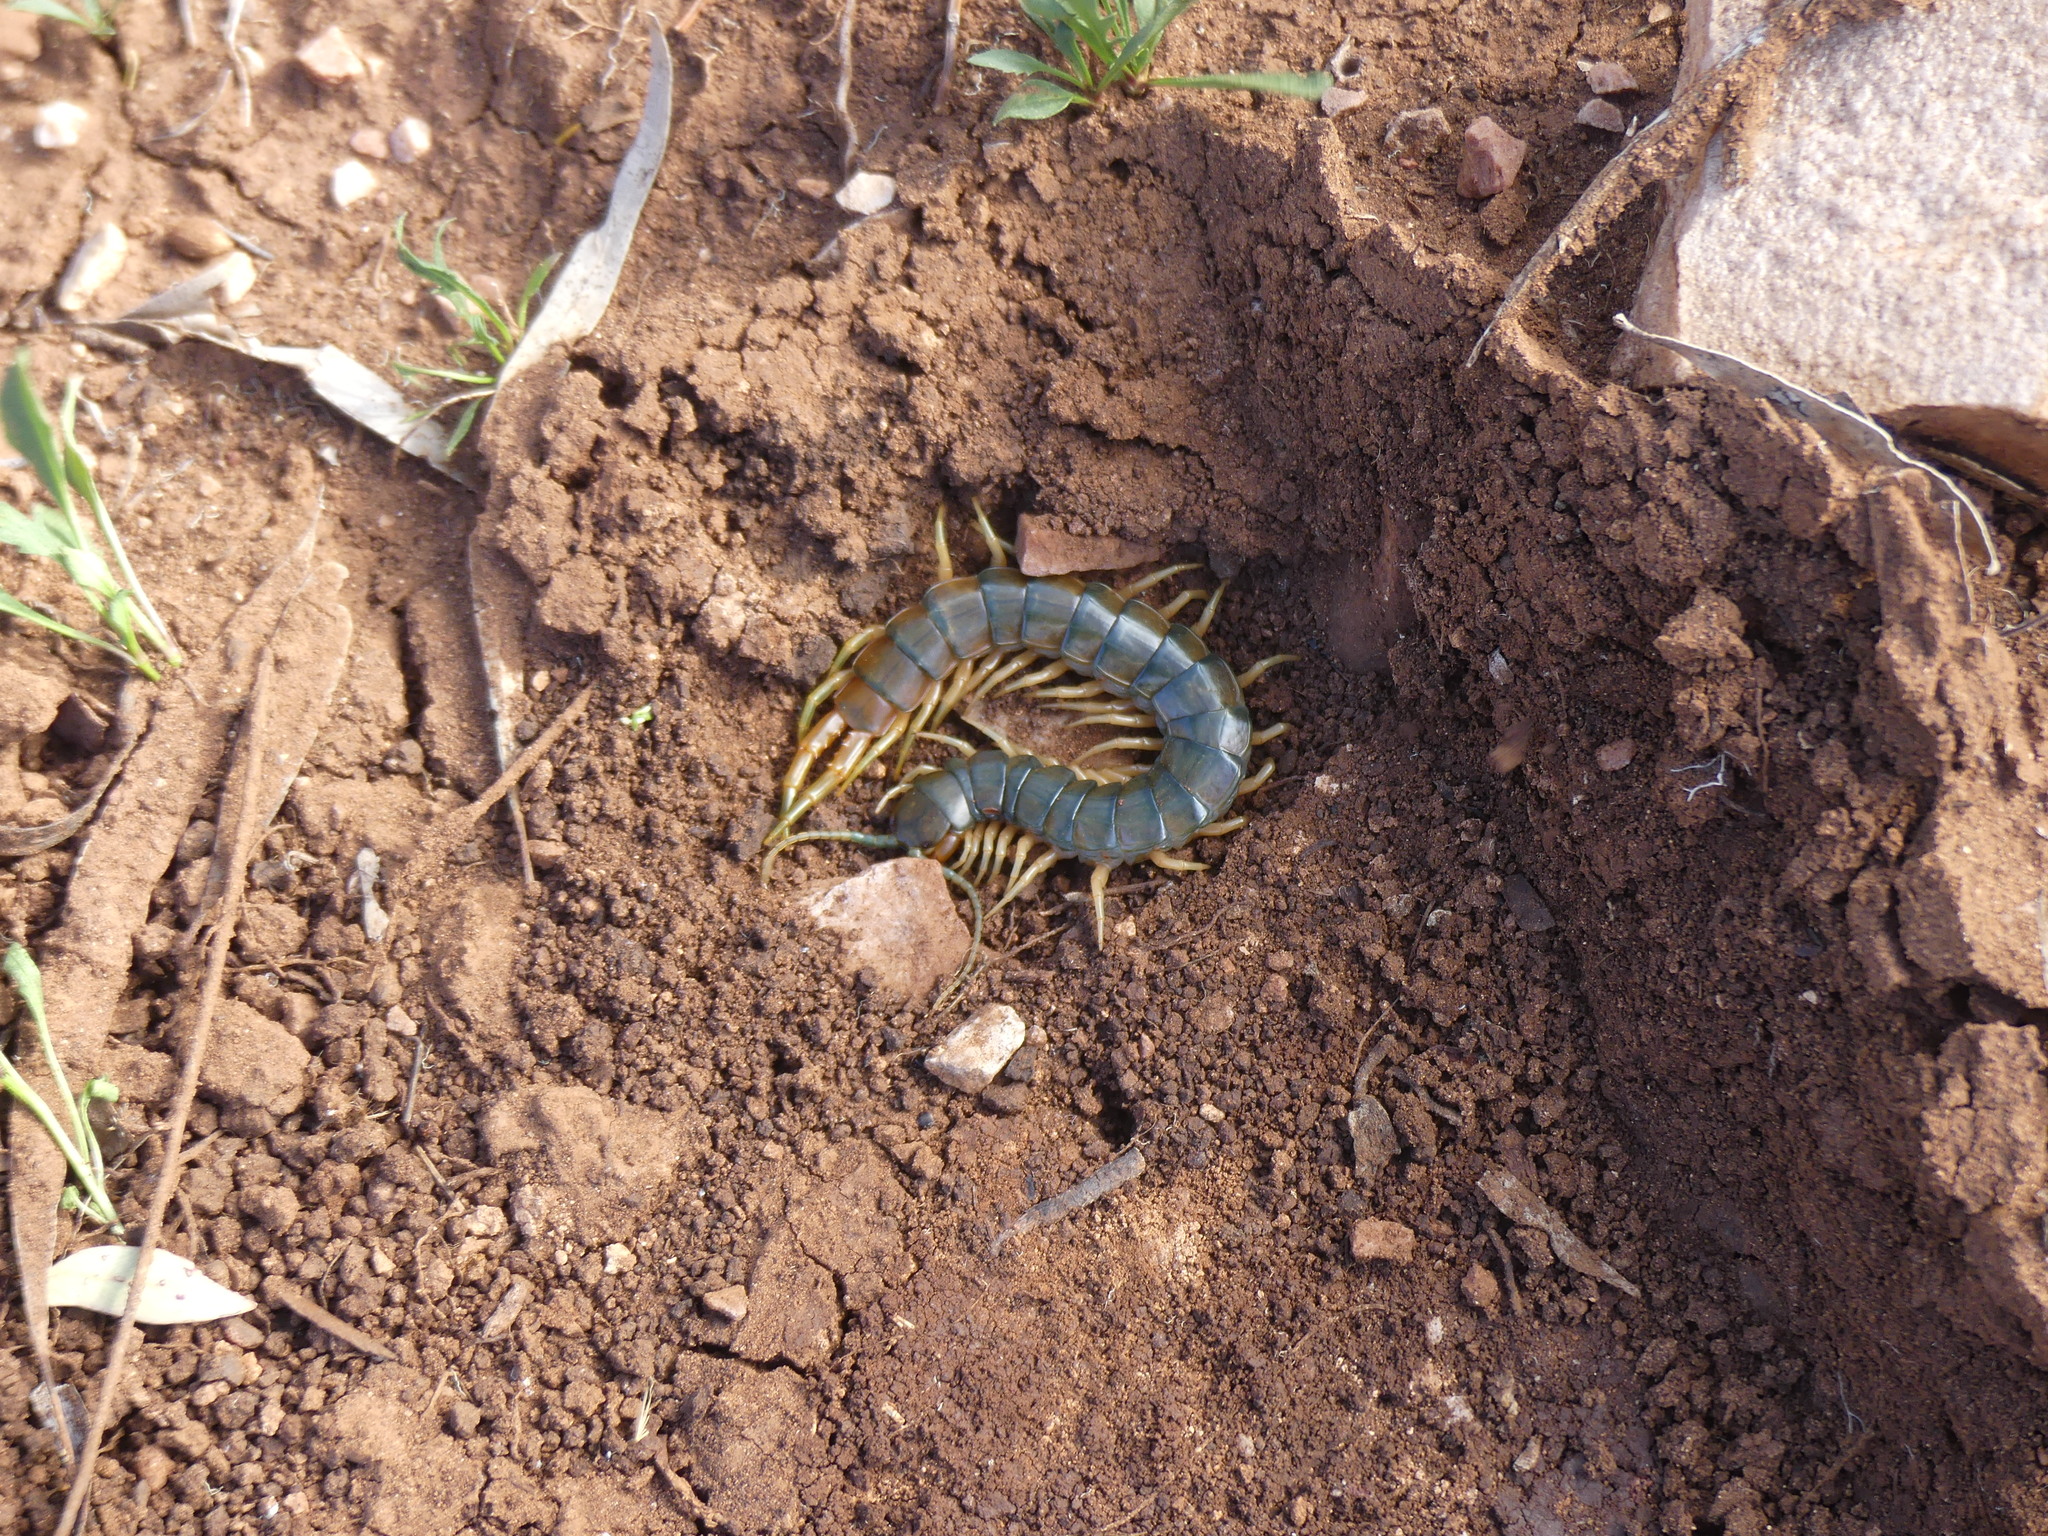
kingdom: Animalia
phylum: Arthropoda
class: Chilopoda
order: Scolopendromorpha
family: Scolopendridae
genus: Ethmostigmus
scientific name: Ethmostigmus rubripes
